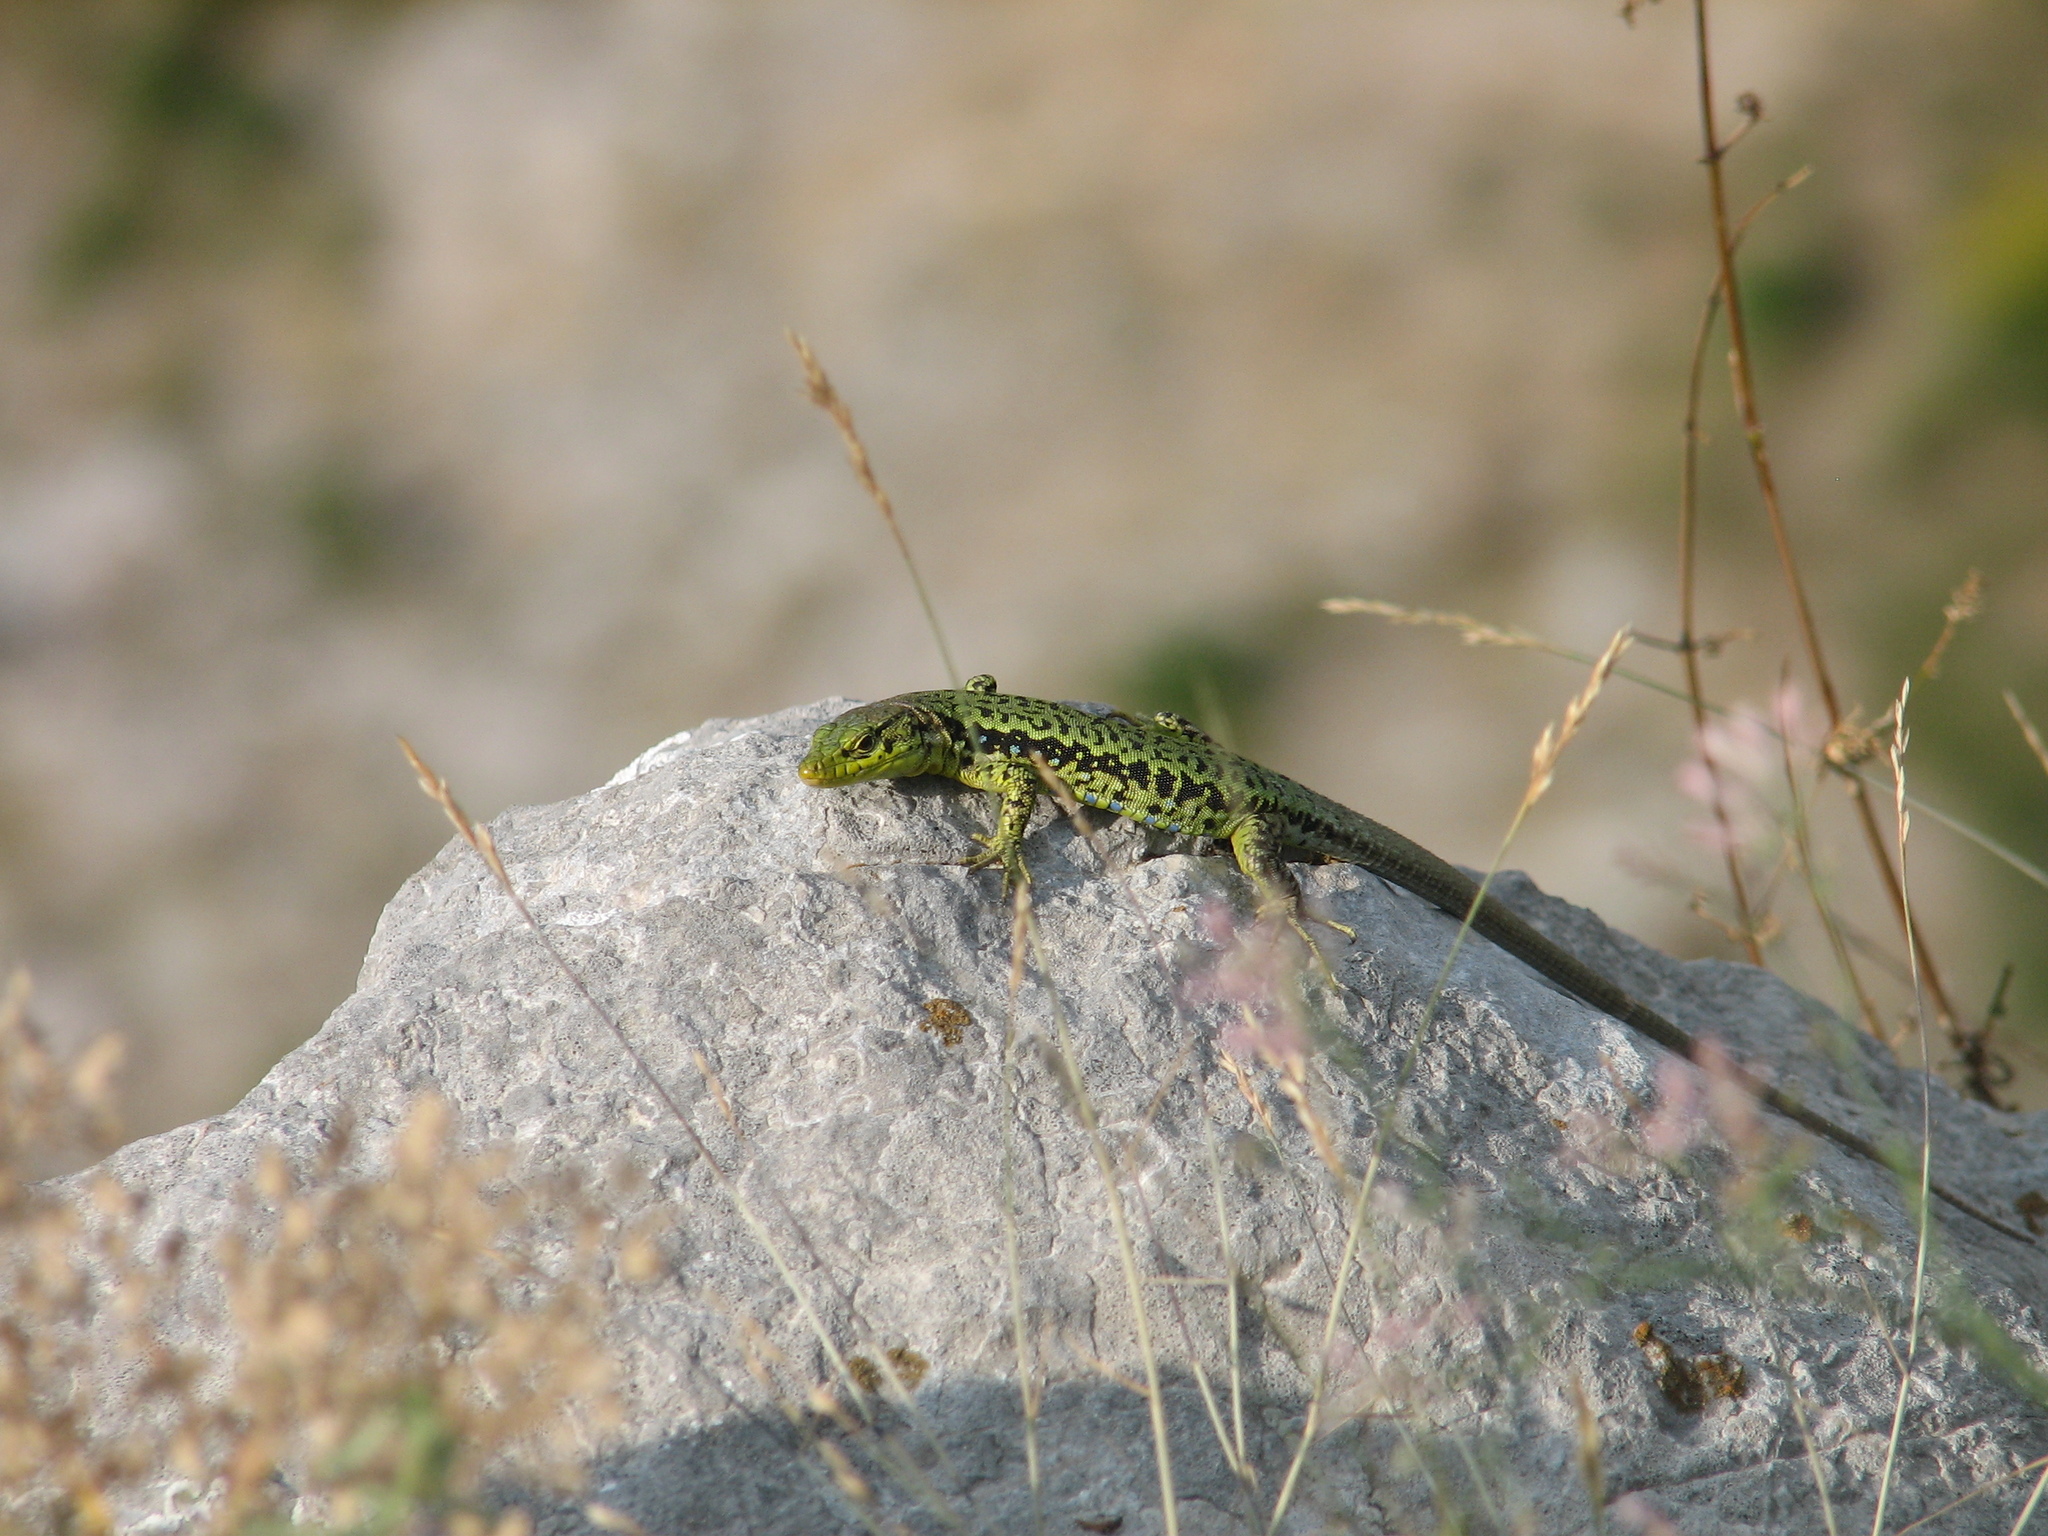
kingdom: Animalia
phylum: Chordata
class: Squamata
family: Lacertidae
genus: Darevskia
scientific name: Darevskia lindholmi
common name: Crimean rock lizard
